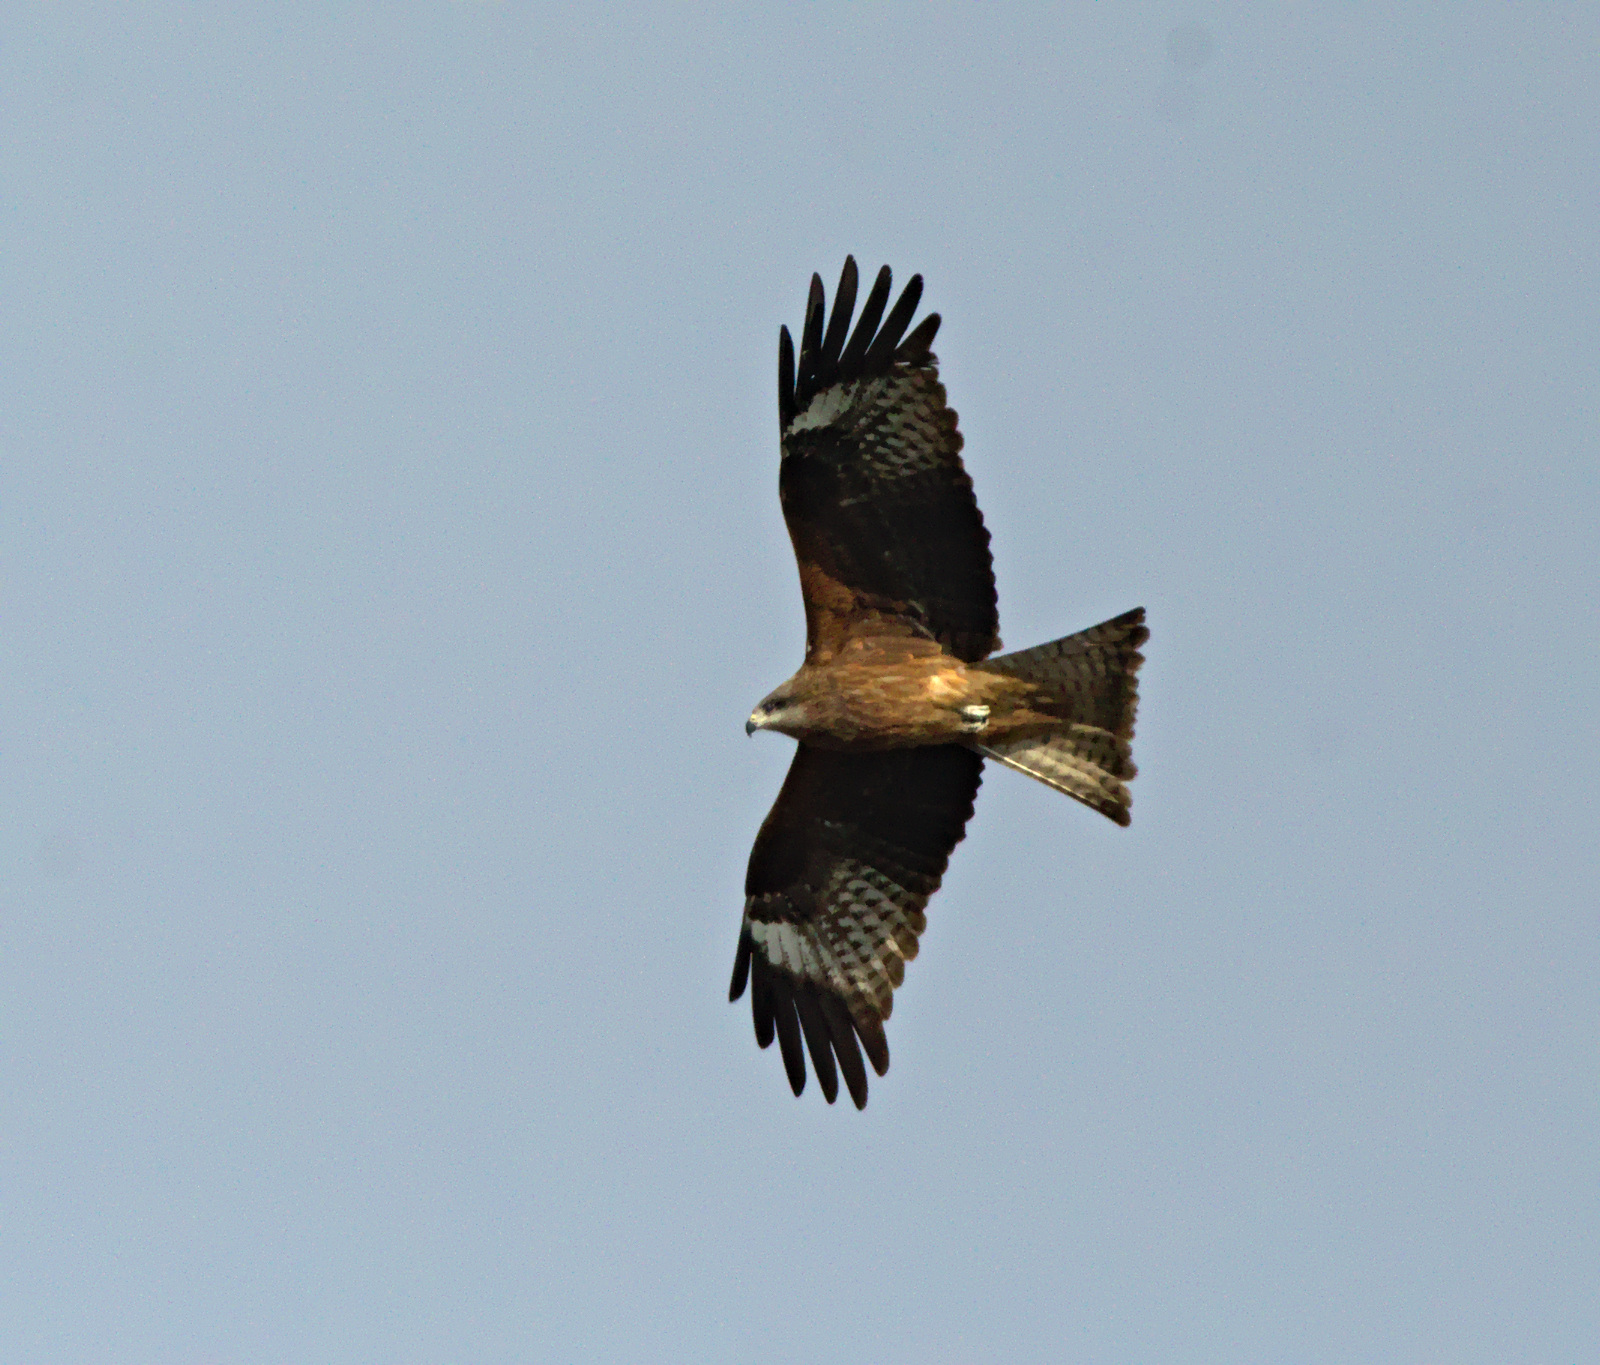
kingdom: Animalia
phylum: Chordata
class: Aves
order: Accipitriformes
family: Accipitridae
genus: Milvus
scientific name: Milvus migrans
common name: Black kite
